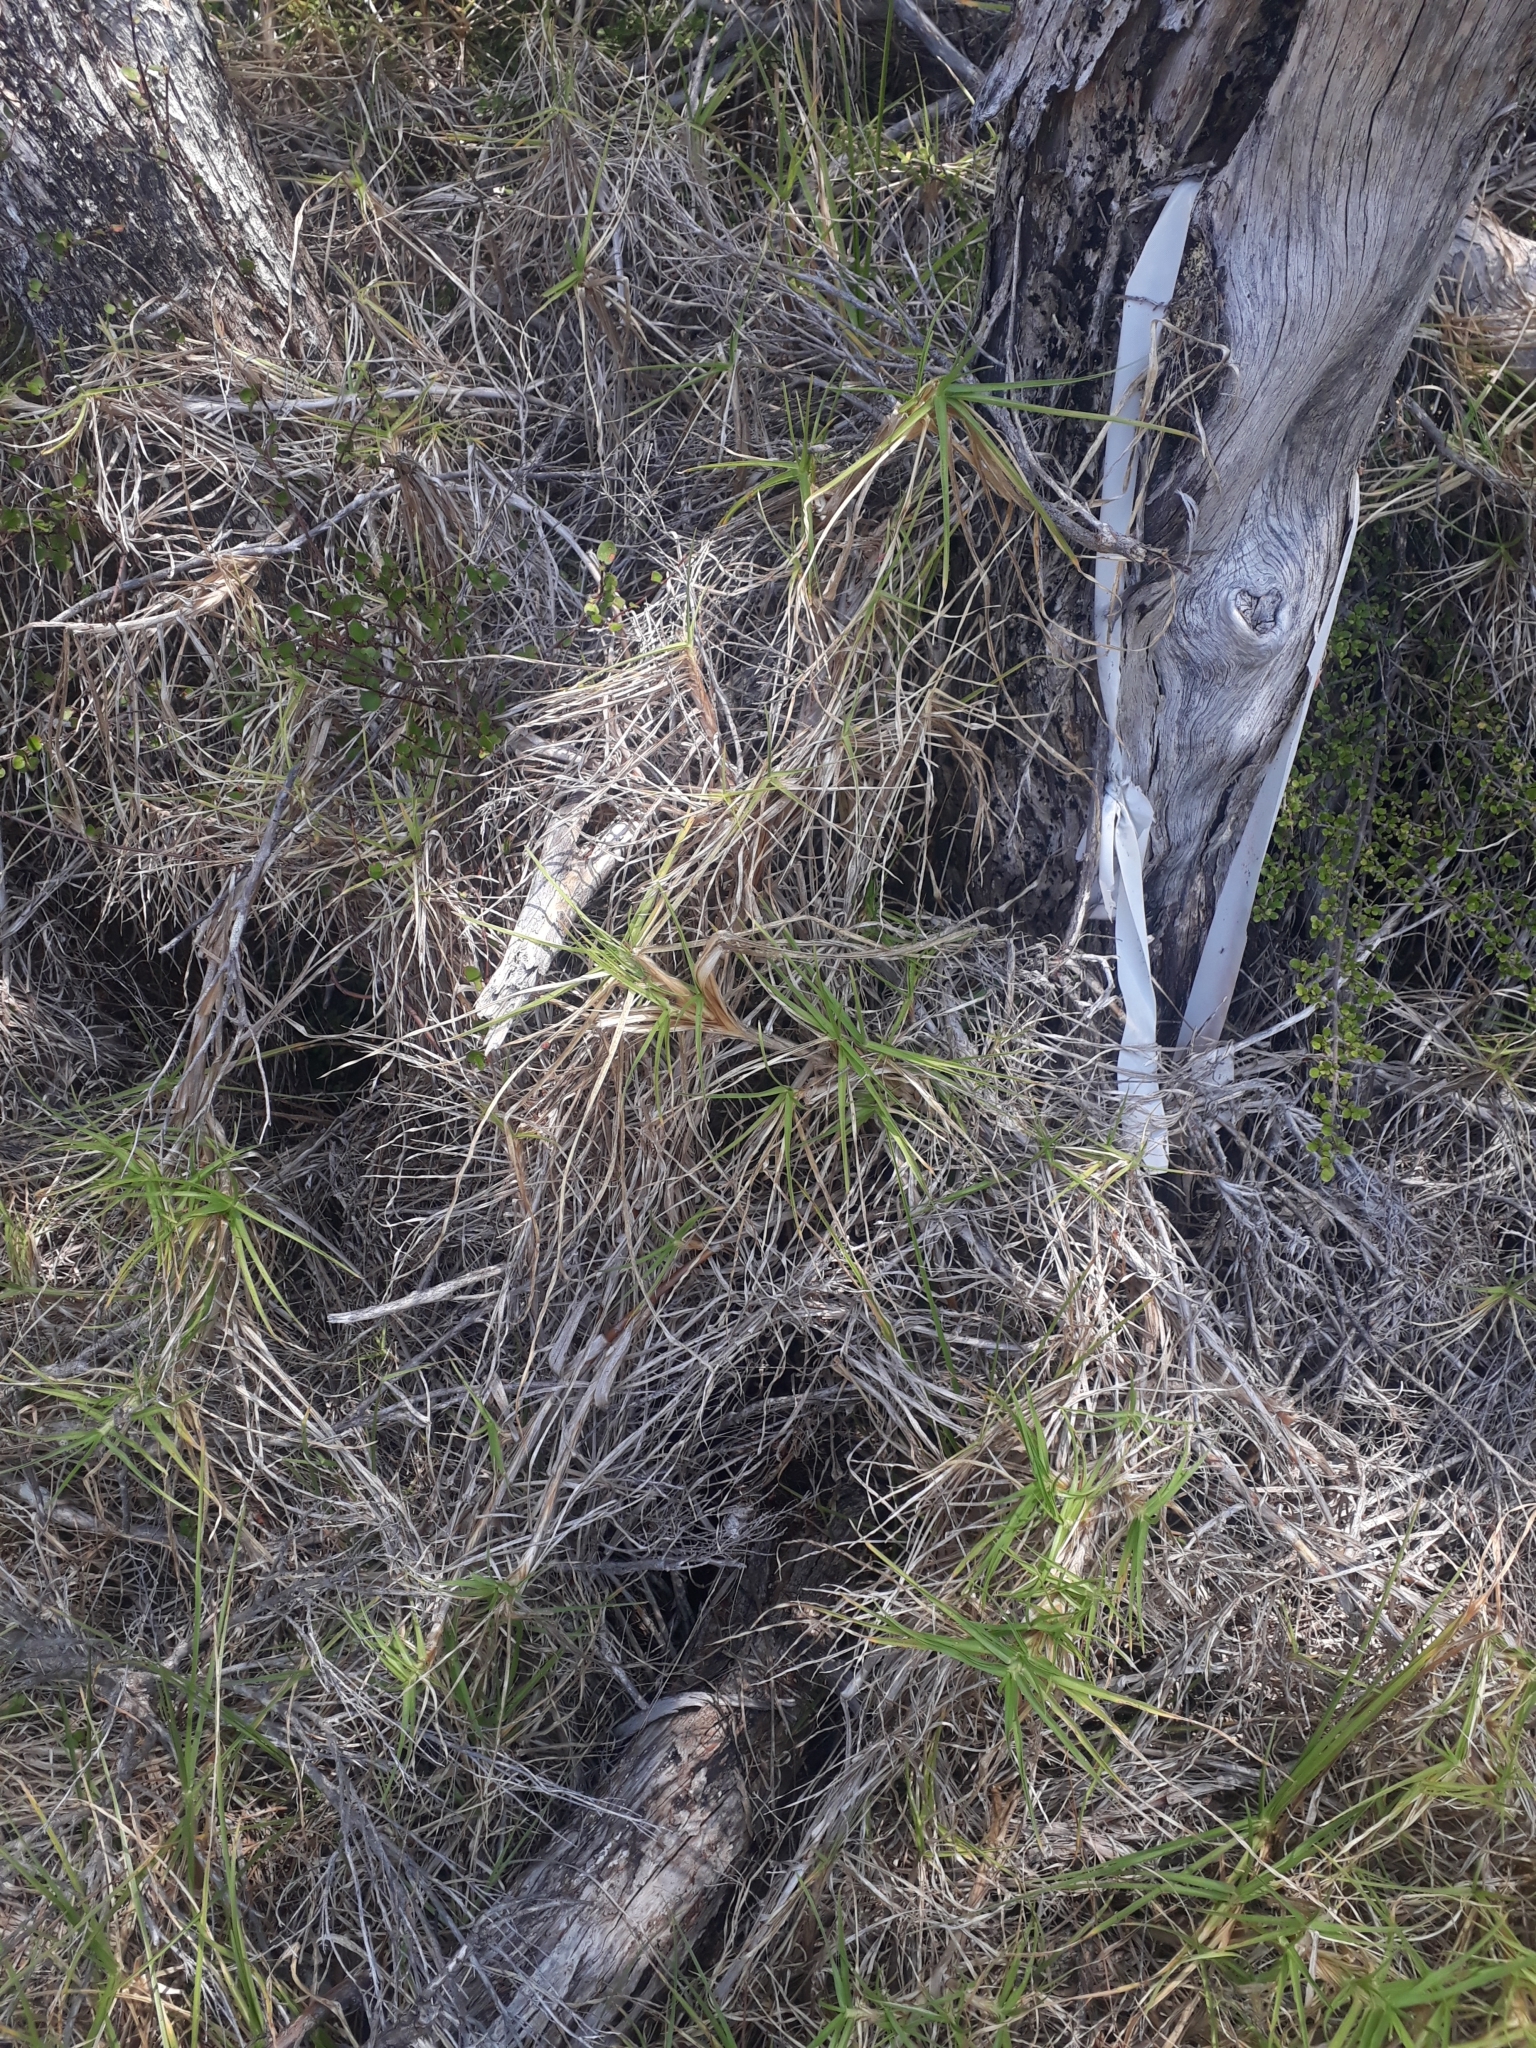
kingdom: Plantae
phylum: Tracheophyta
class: Liliopsida
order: Poales
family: Poaceae
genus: Cenchrus
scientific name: Cenchrus clandestinus
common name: Kikuyugrass
